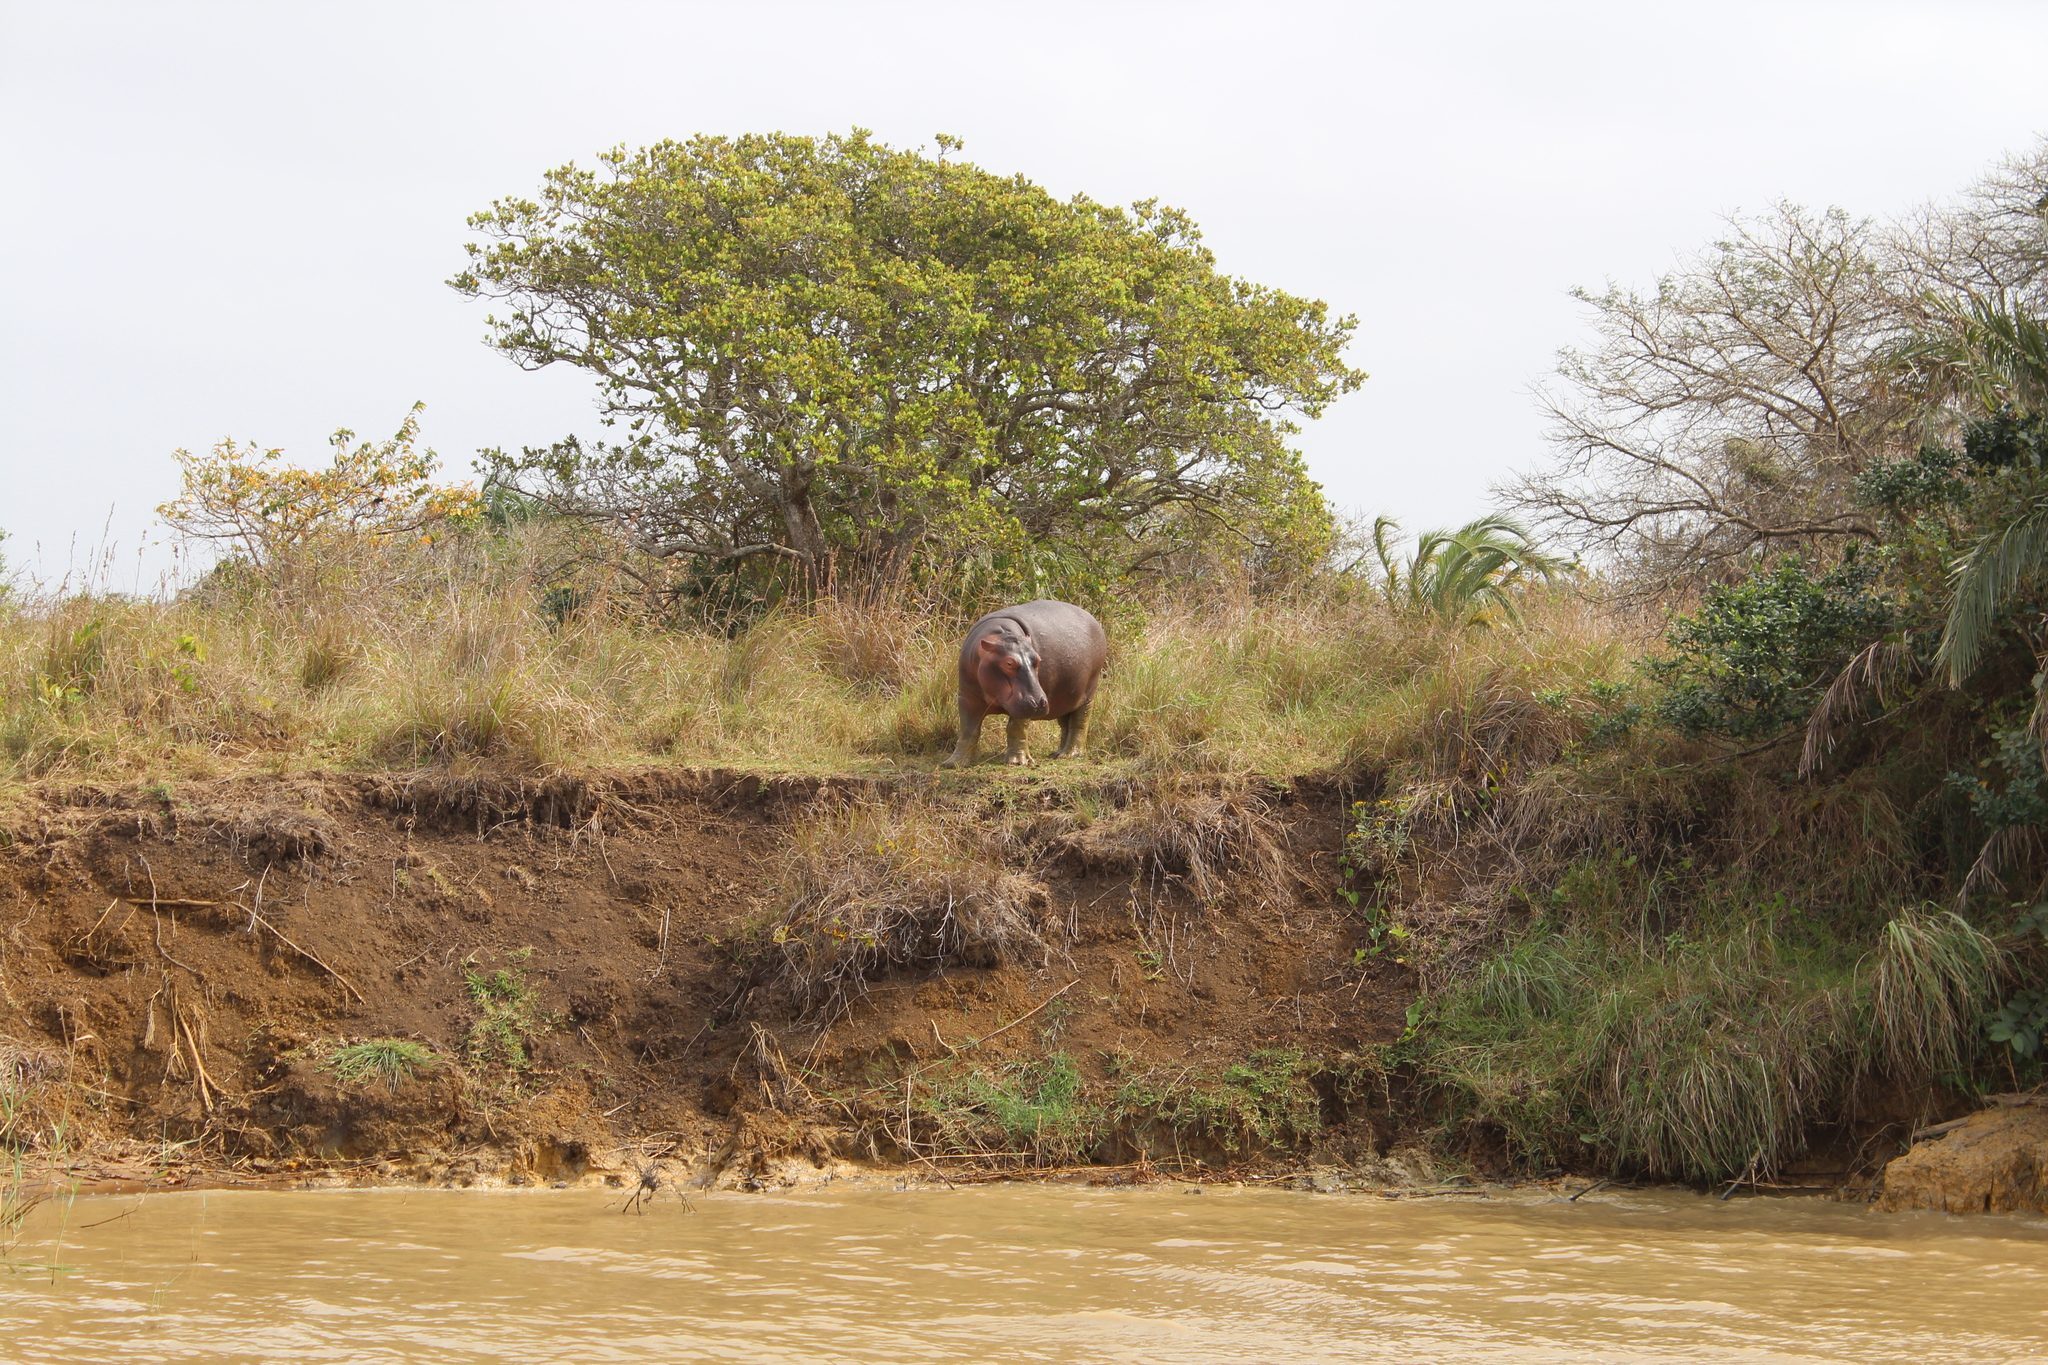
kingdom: Animalia
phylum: Chordata
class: Mammalia
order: Artiodactyla
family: Hippopotamidae
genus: Hippopotamus
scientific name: Hippopotamus amphibius
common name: Common hippopotamus
